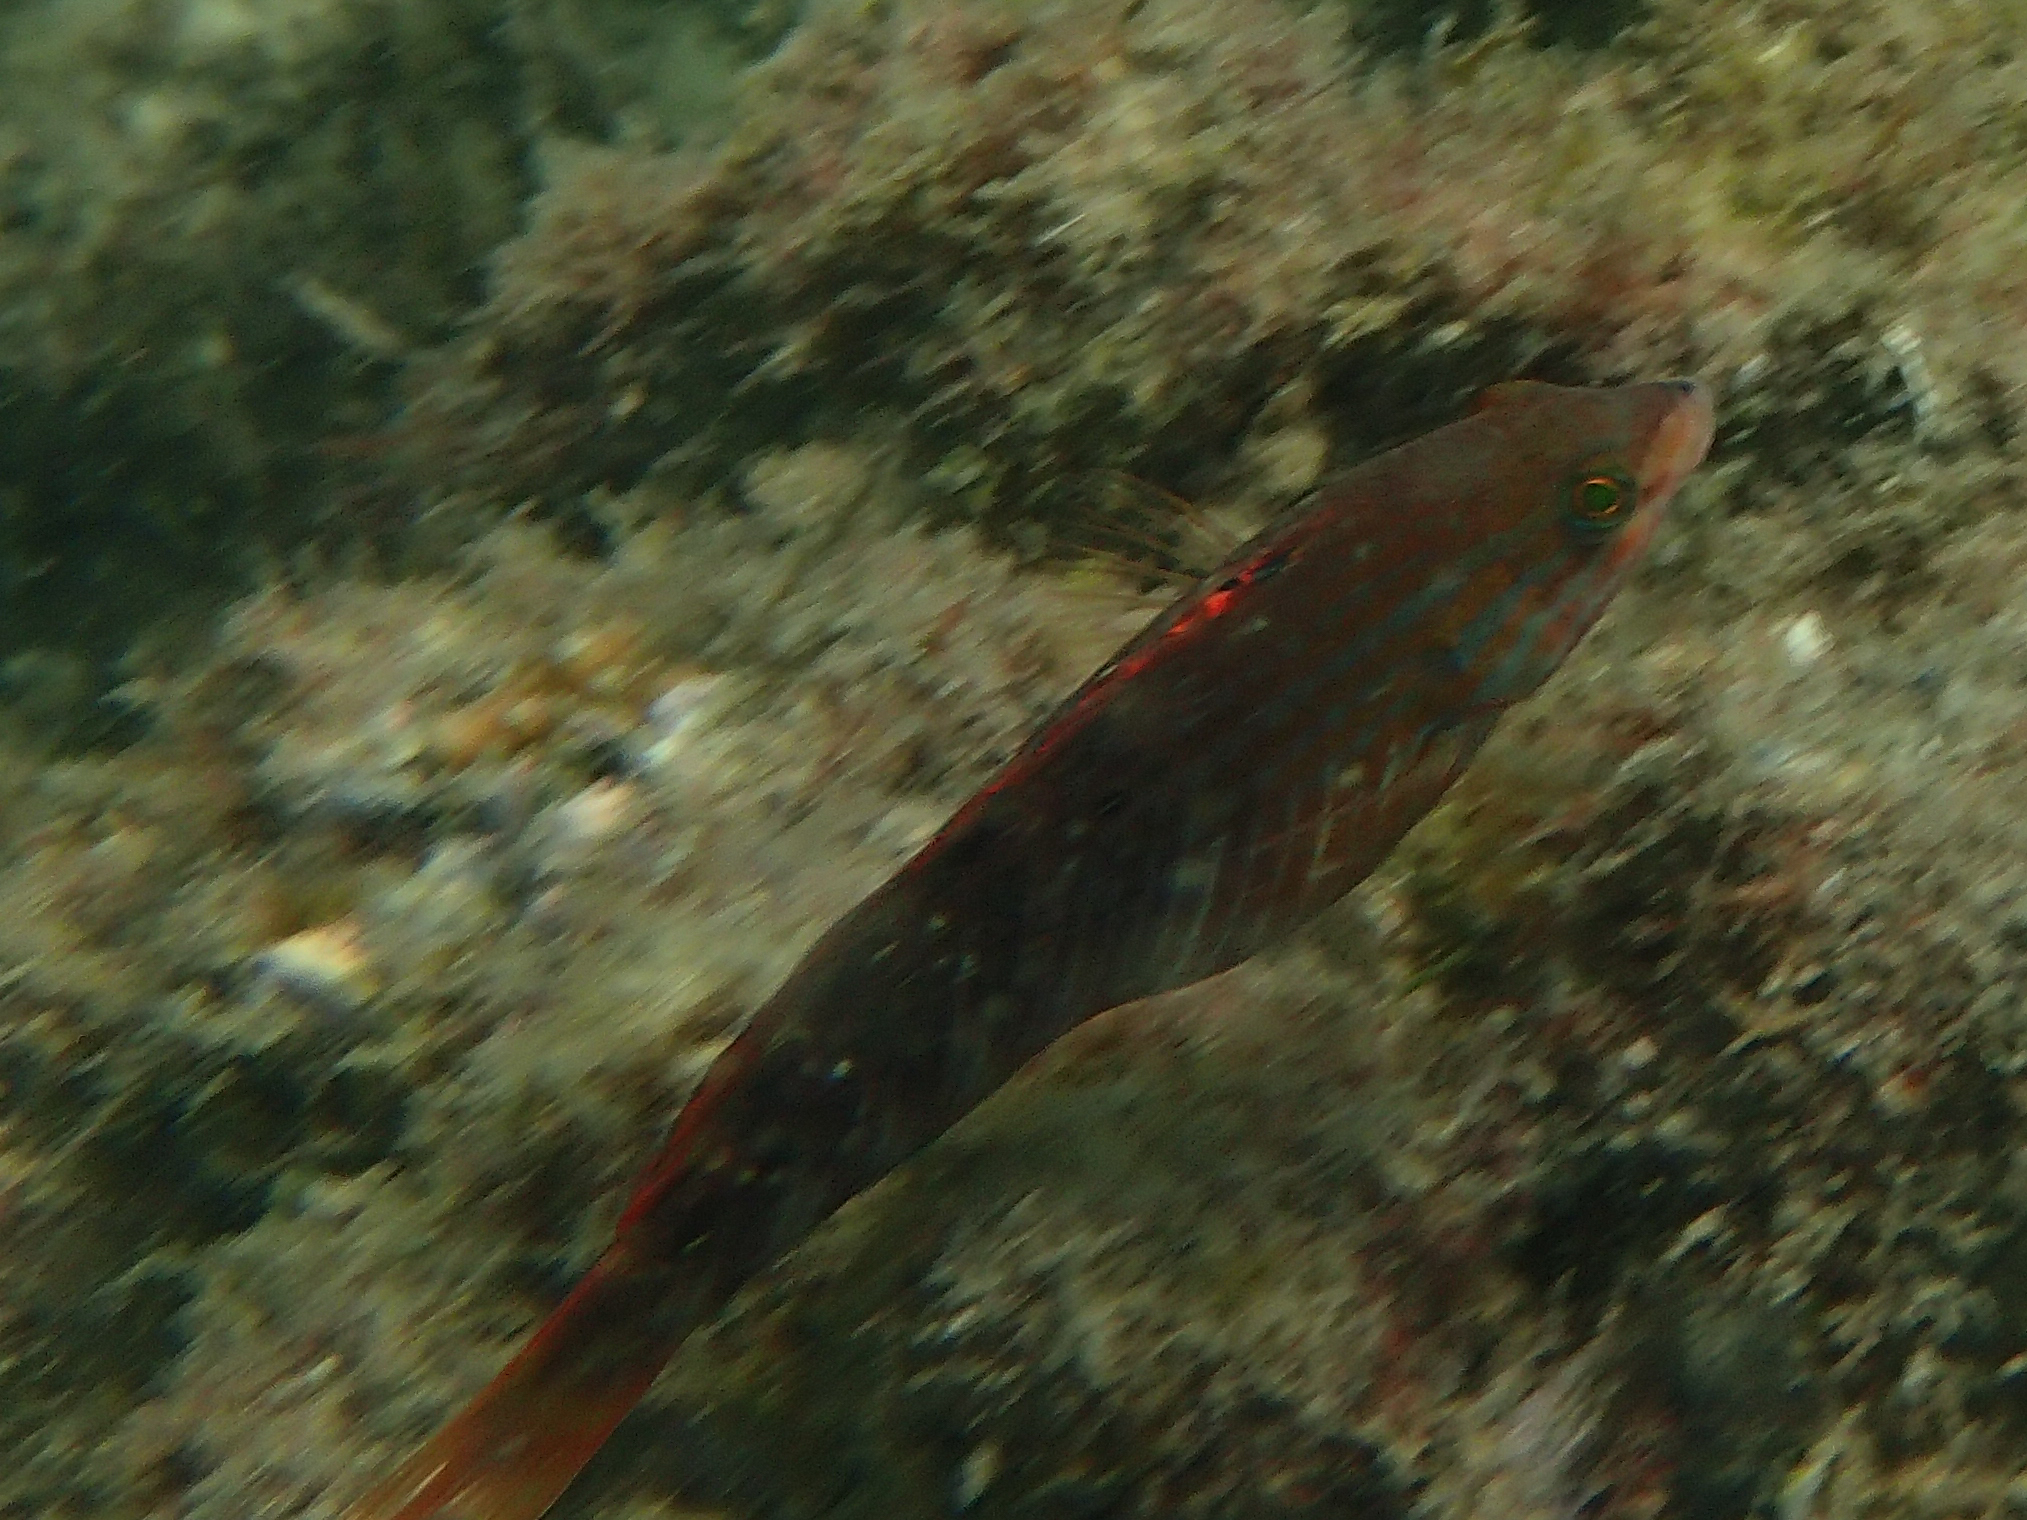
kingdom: Animalia
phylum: Chordata
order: Perciformes
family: Labridae
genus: Pseudolabrus
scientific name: Pseudolabrus guentheri
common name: Günther's wrasse
